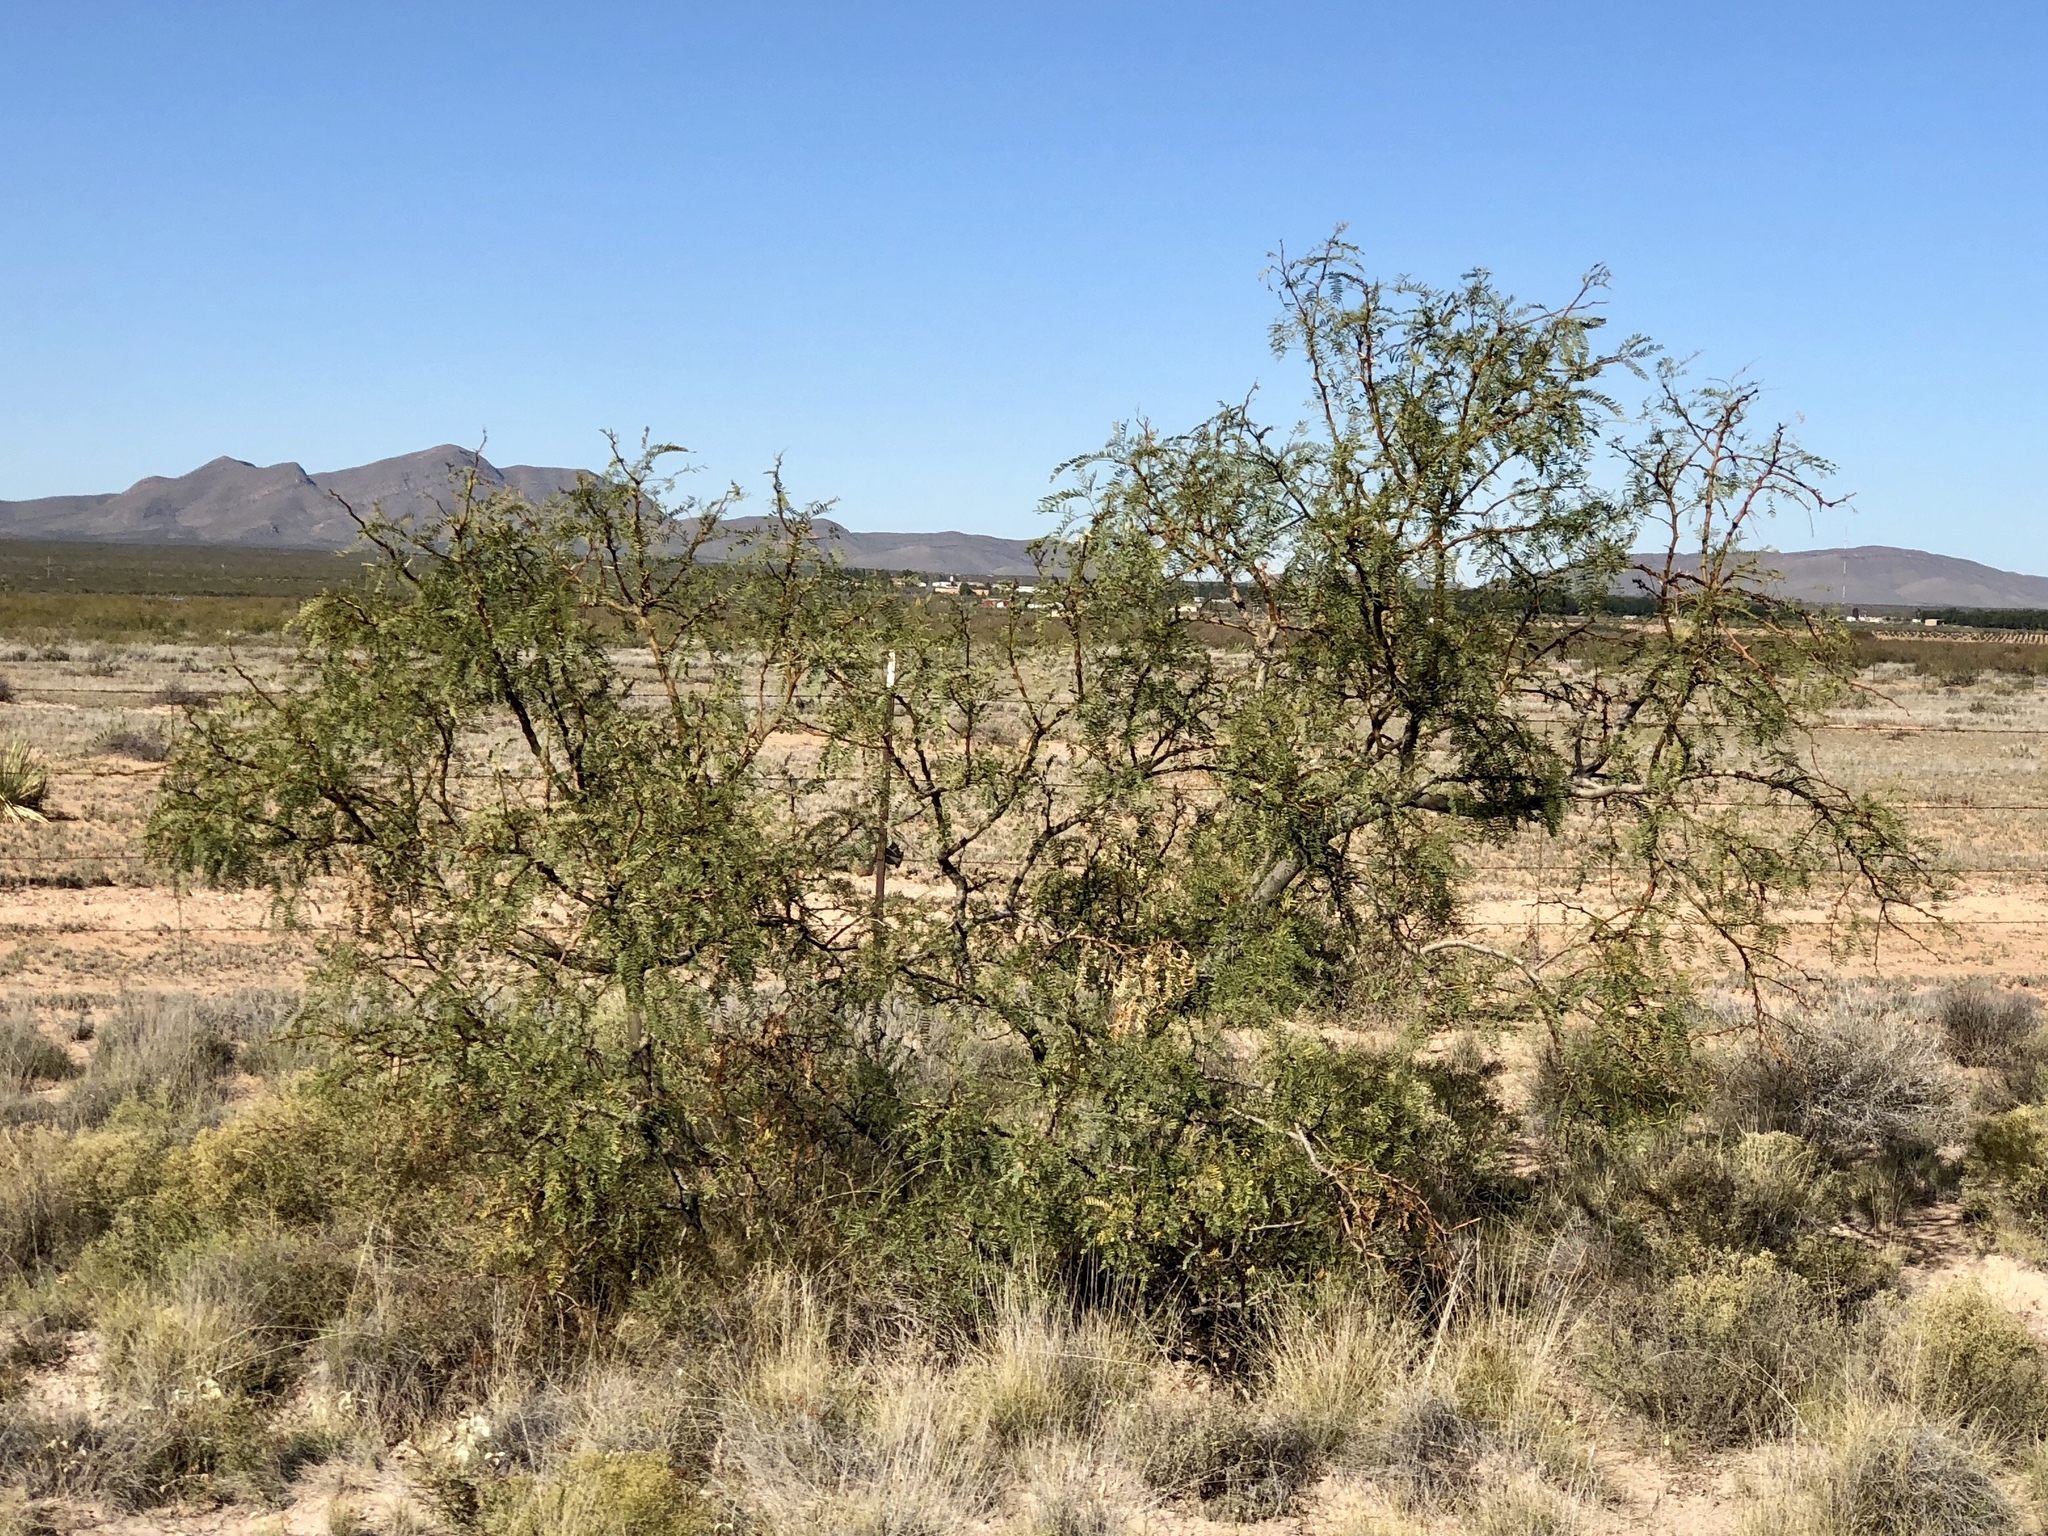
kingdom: Plantae
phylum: Tracheophyta
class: Magnoliopsida
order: Fabales
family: Fabaceae
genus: Prosopis
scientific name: Prosopis glandulosa
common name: Honey mesquite
